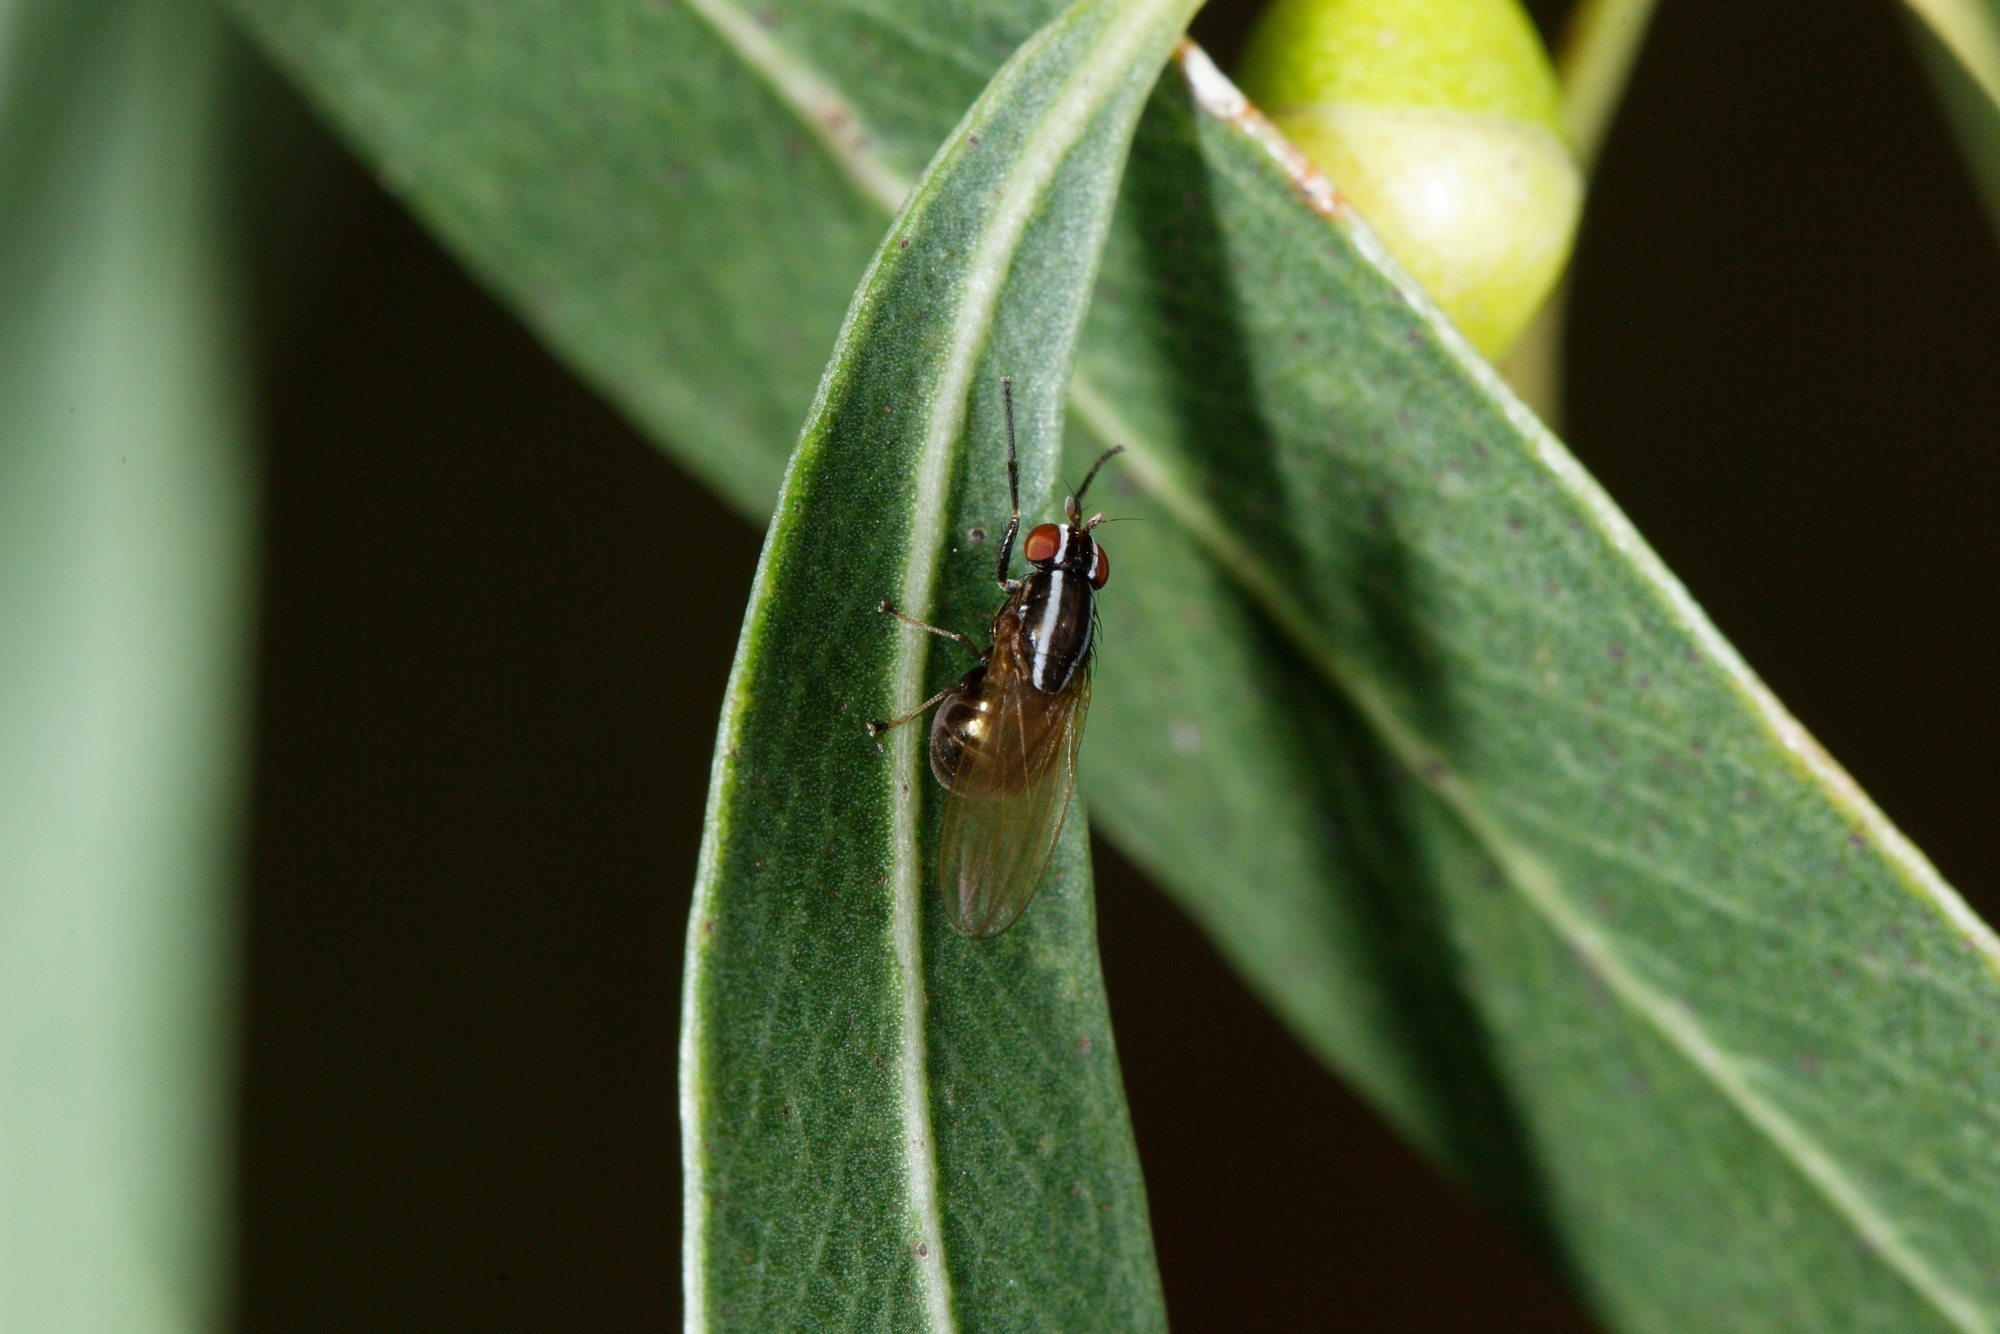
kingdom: Animalia
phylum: Arthropoda
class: Insecta
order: Diptera
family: Lauxaniidae
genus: Poecilohetaerus
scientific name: Poecilohetaerus aquilus
